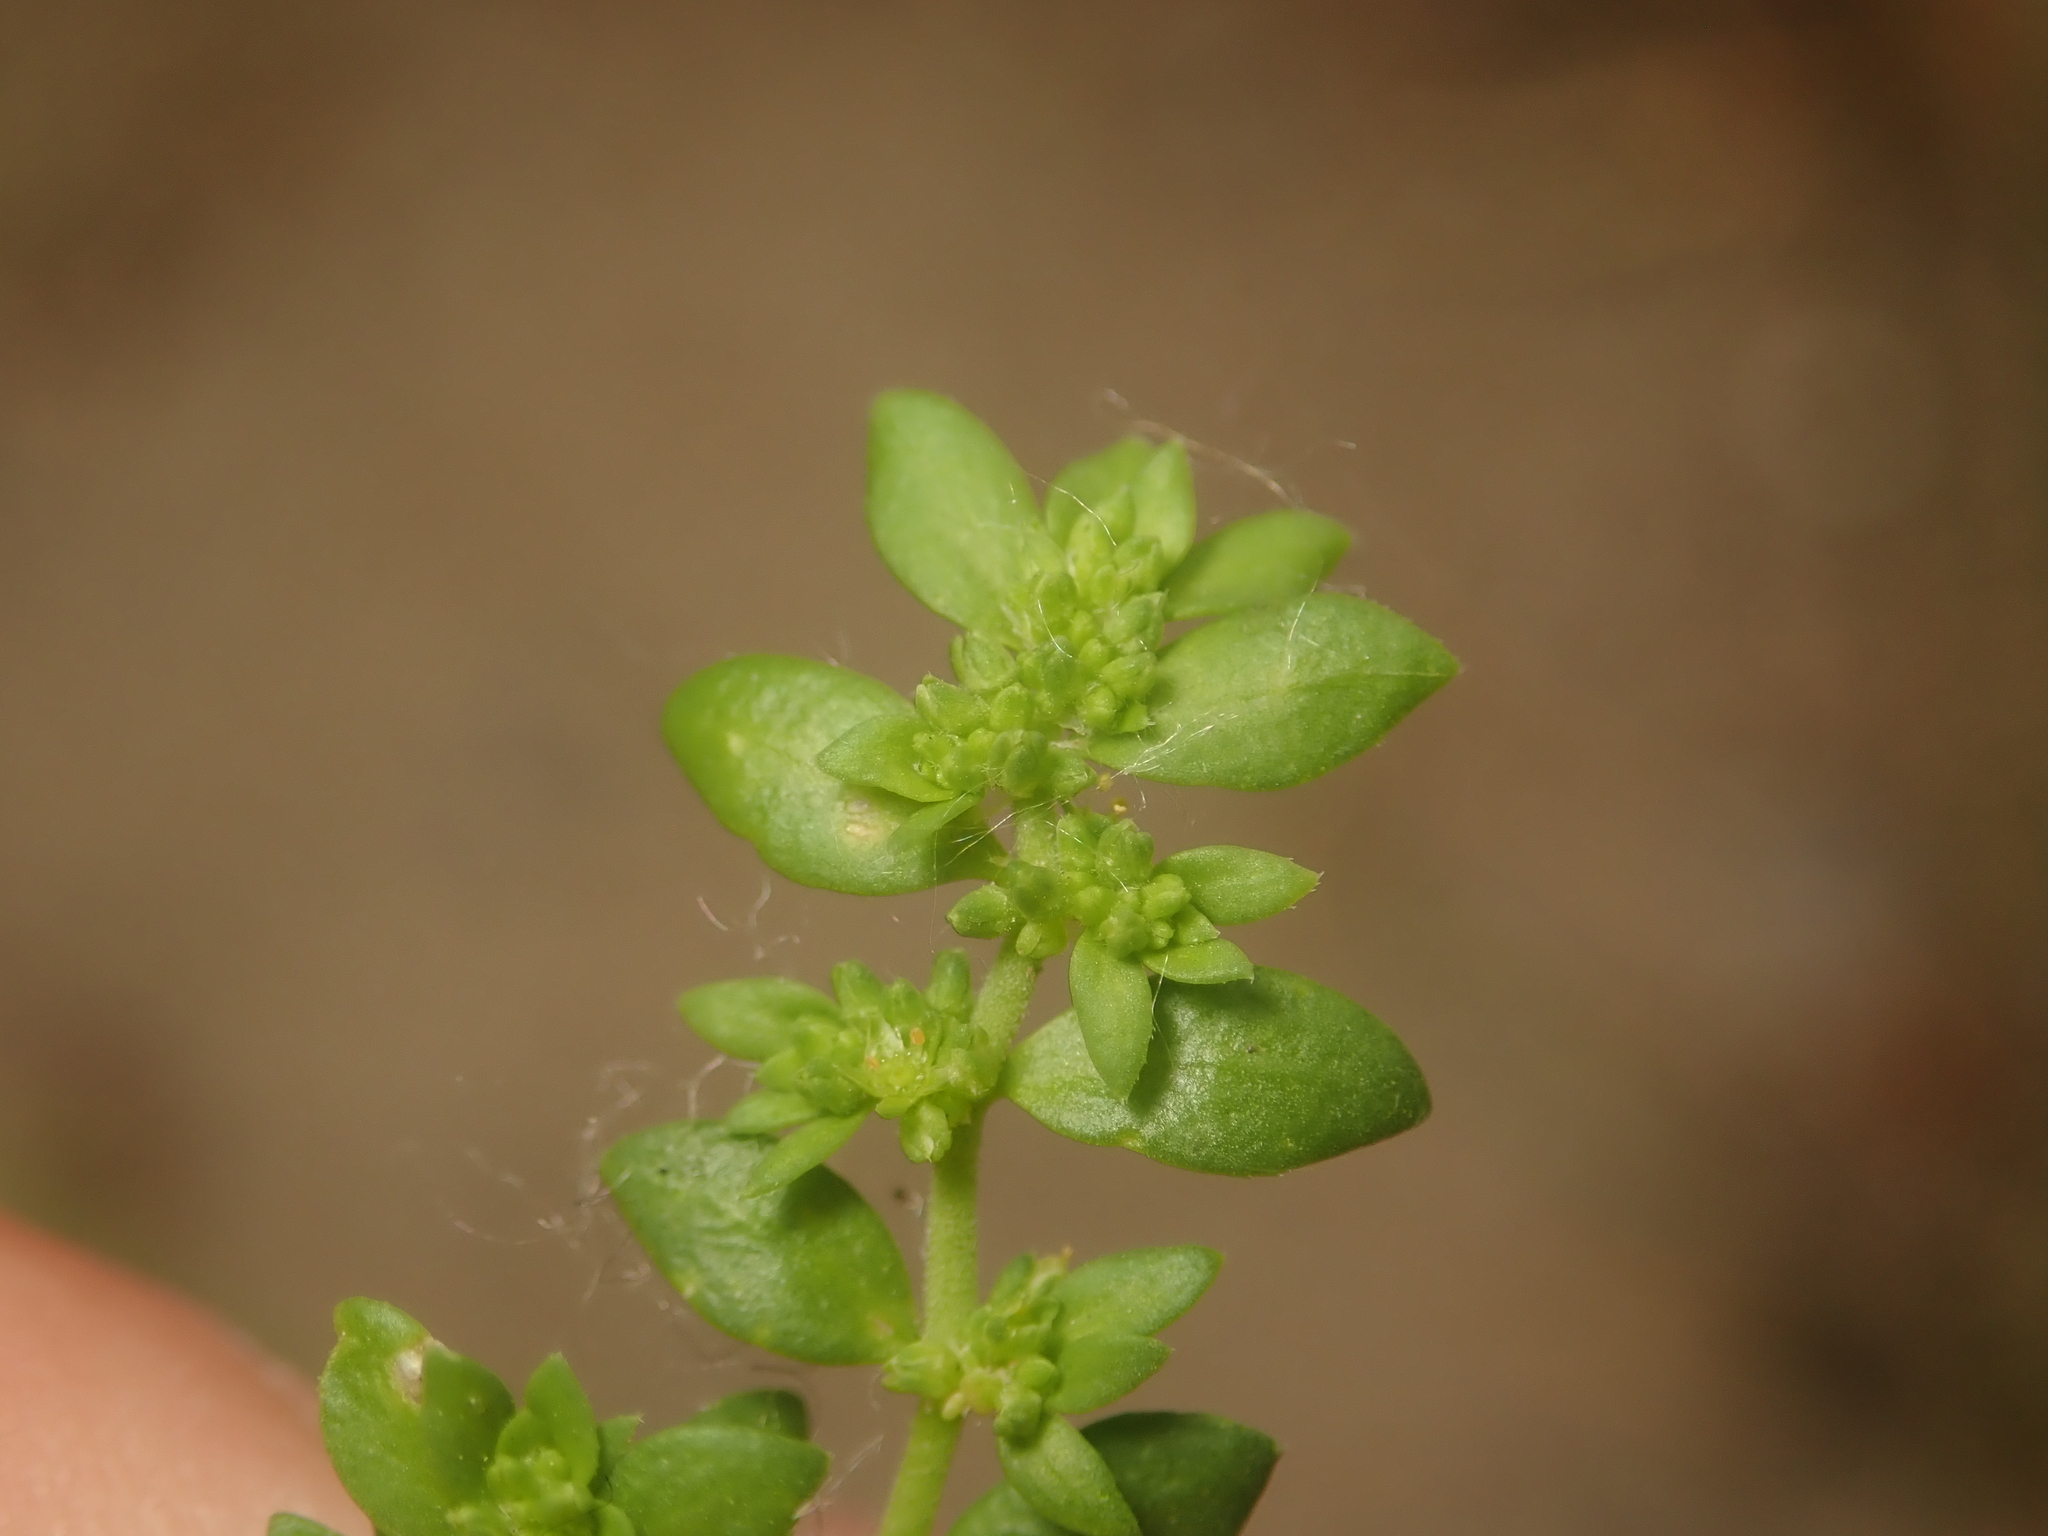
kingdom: Plantae
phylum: Tracheophyta
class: Magnoliopsida
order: Caryophyllales
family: Caryophyllaceae
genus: Herniaria
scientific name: Herniaria glabra
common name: Smooth rupturewort
